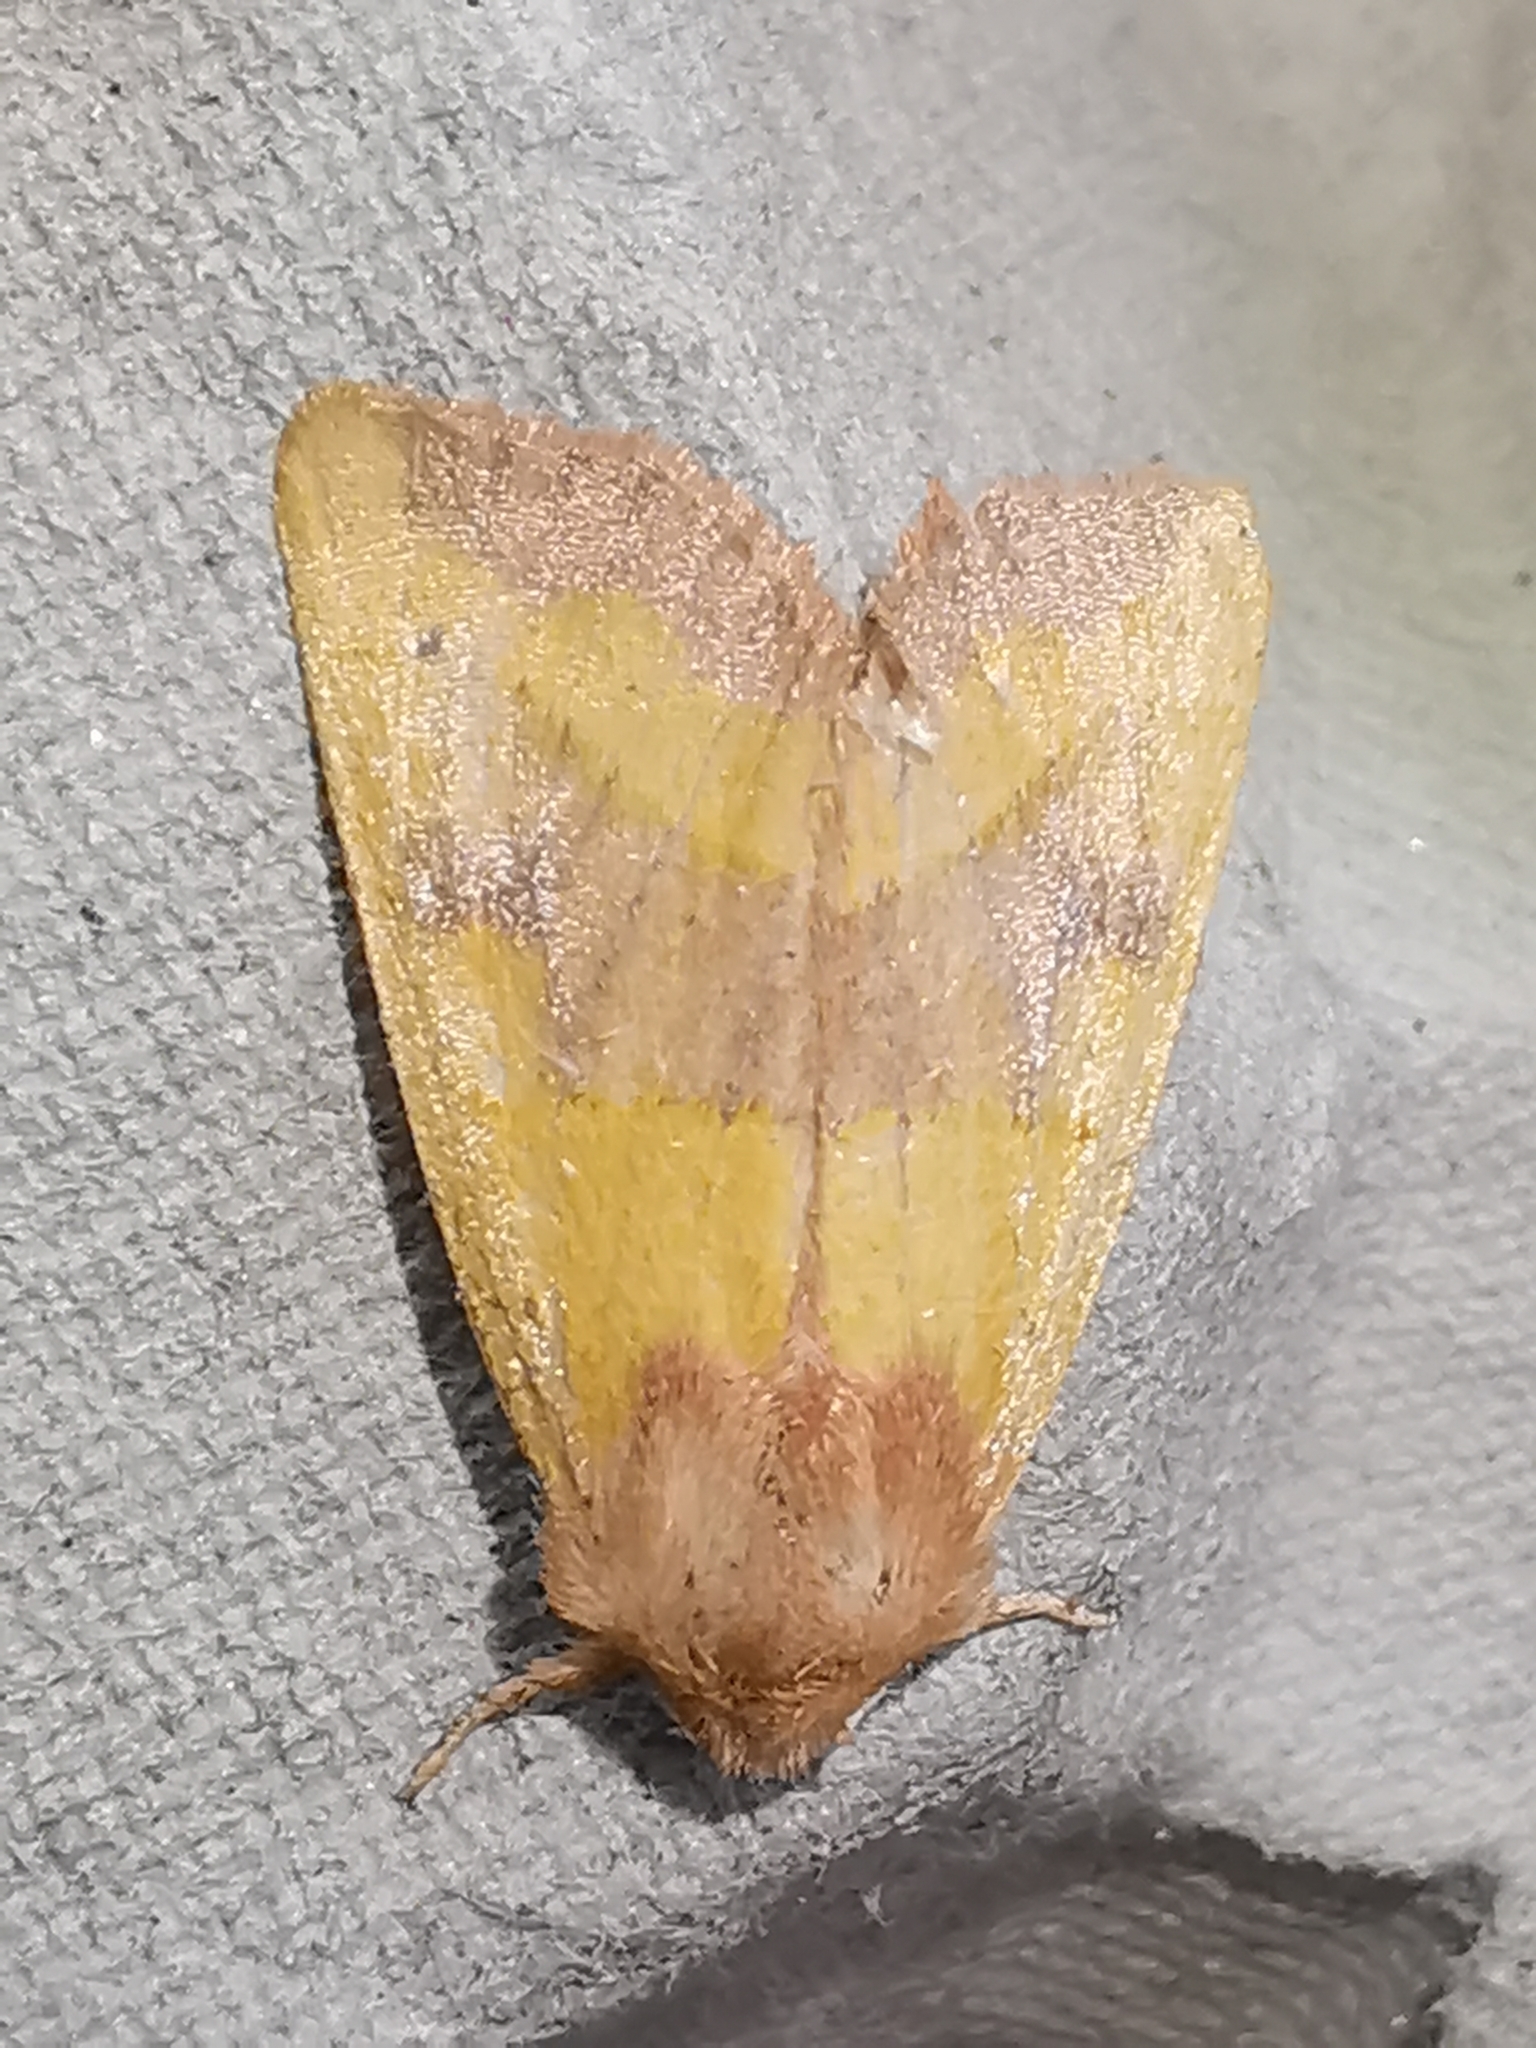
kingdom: Animalia
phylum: Arthropoda
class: Insecta
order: Lepidoptera
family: Noctuidae
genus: Atethmia
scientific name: Atethmia centrago
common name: Centre-barred sallow
